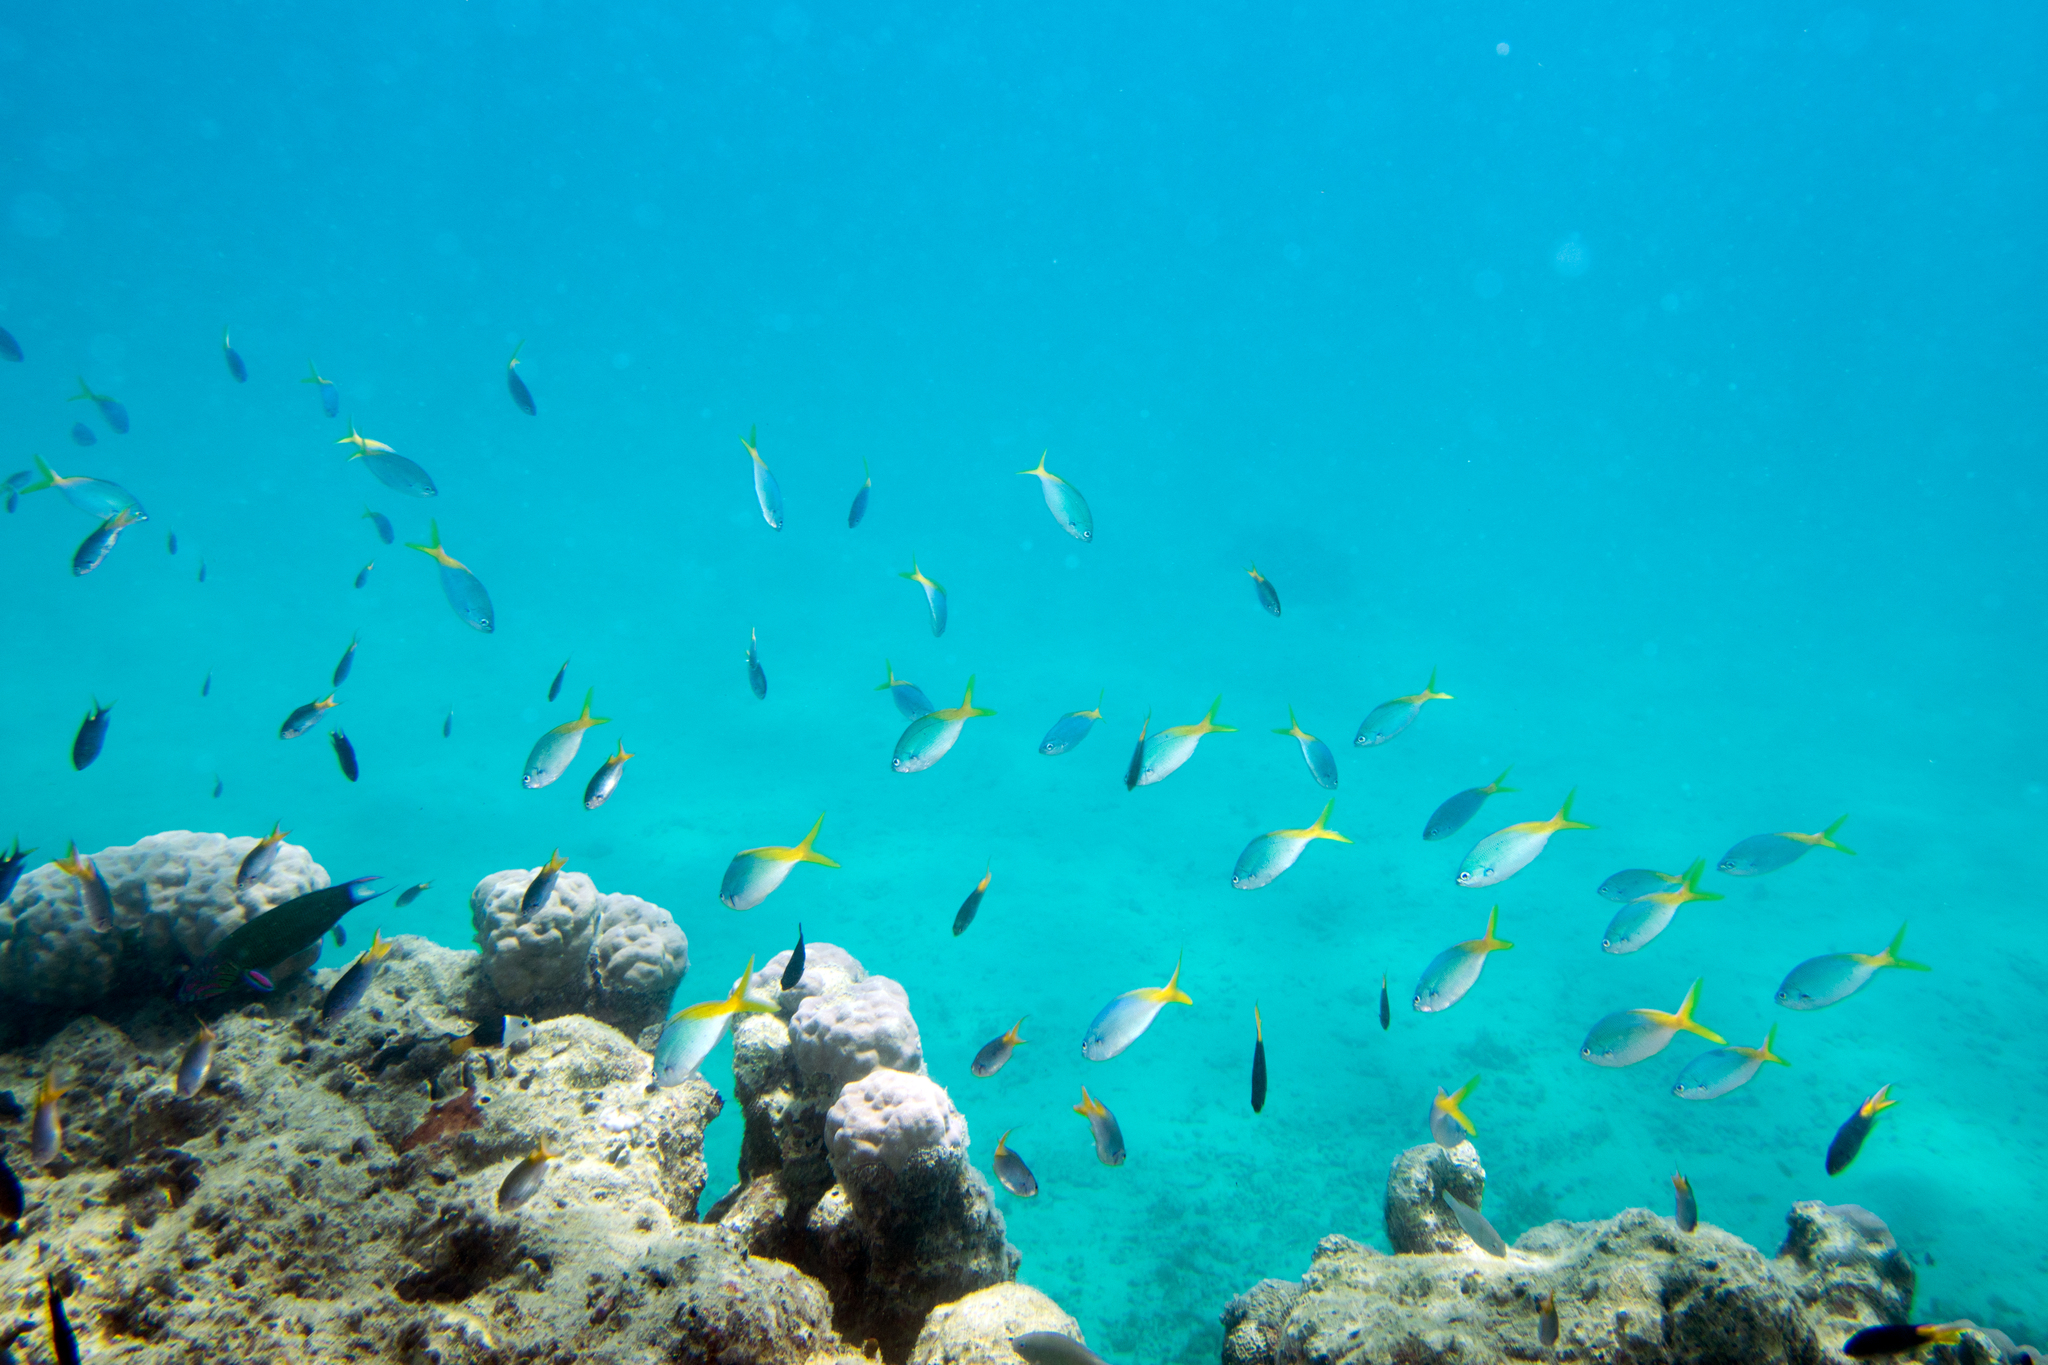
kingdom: Animalia
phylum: Chordata
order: Perciformes
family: Caesionidae
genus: Caesio
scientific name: Caesio cuning
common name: Red-bellied fusilier
